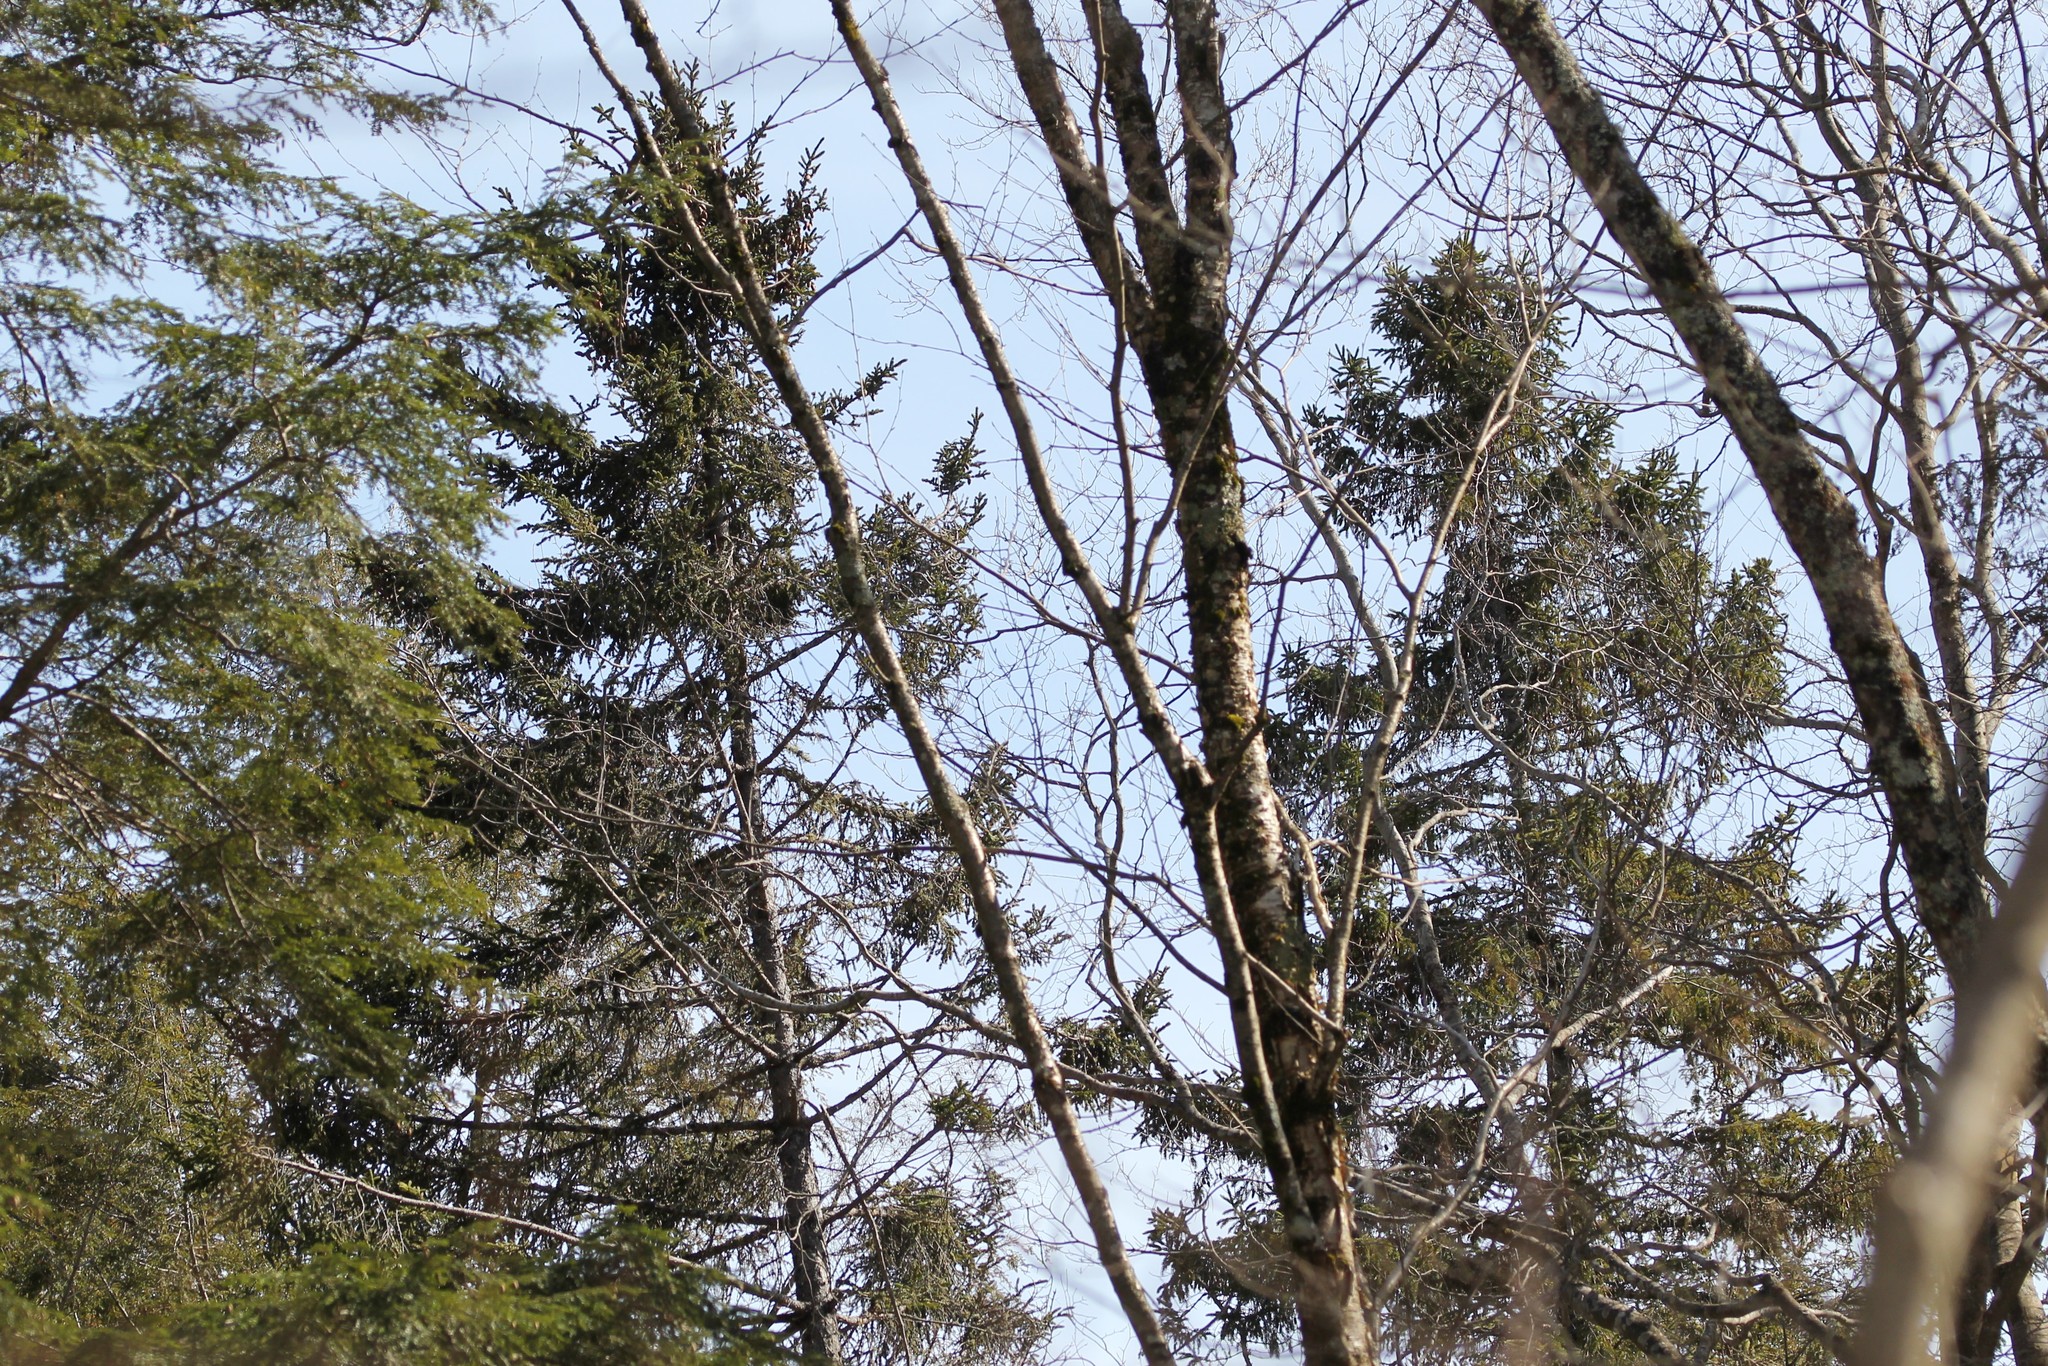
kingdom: Plantae
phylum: Tracheophyta
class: Pinopsida
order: Pinales
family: Pinaceae
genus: Picea
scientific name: Picea rubens
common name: Red spruce
